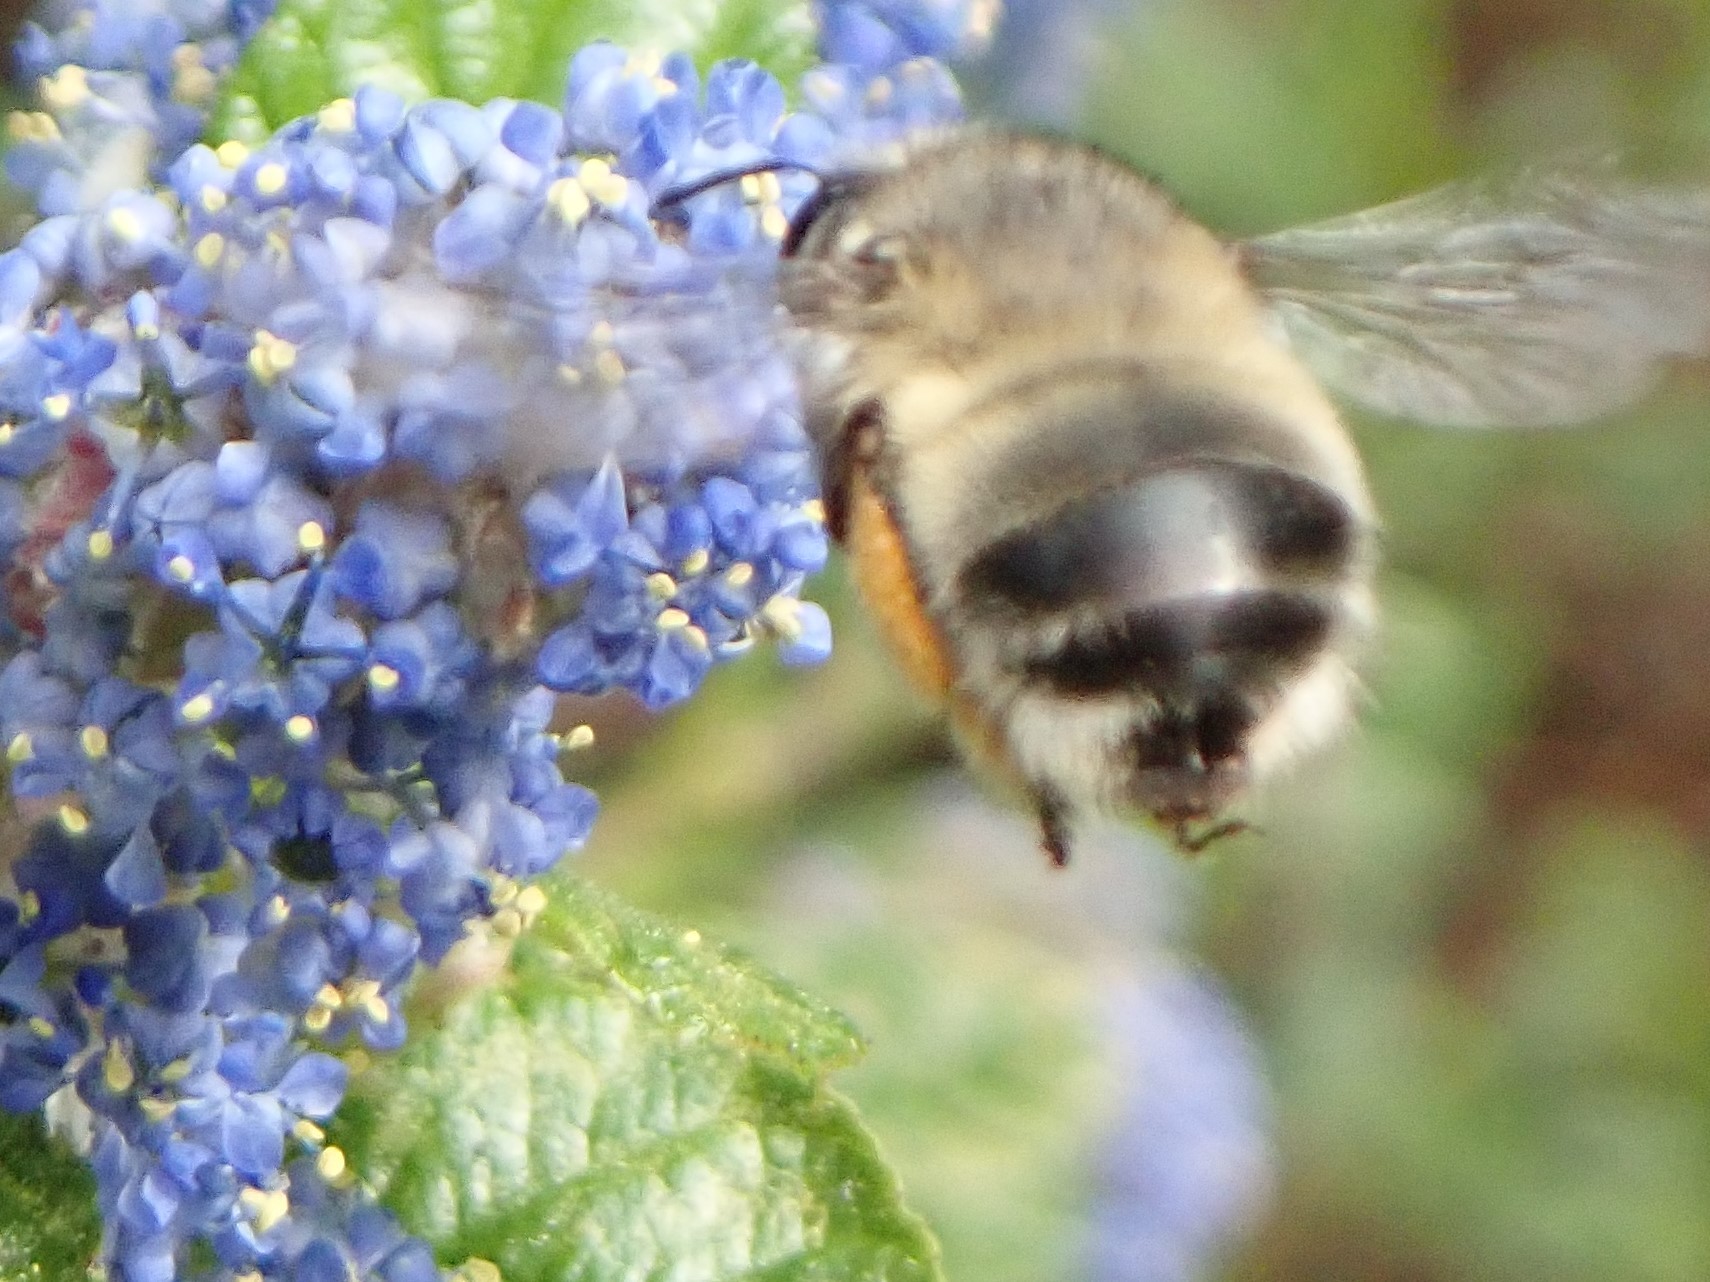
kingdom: Animalia
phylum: Arthropoda
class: Insecta
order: Hymenoptera
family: Apidae
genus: Anthophora
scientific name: Anthophora pacifica
